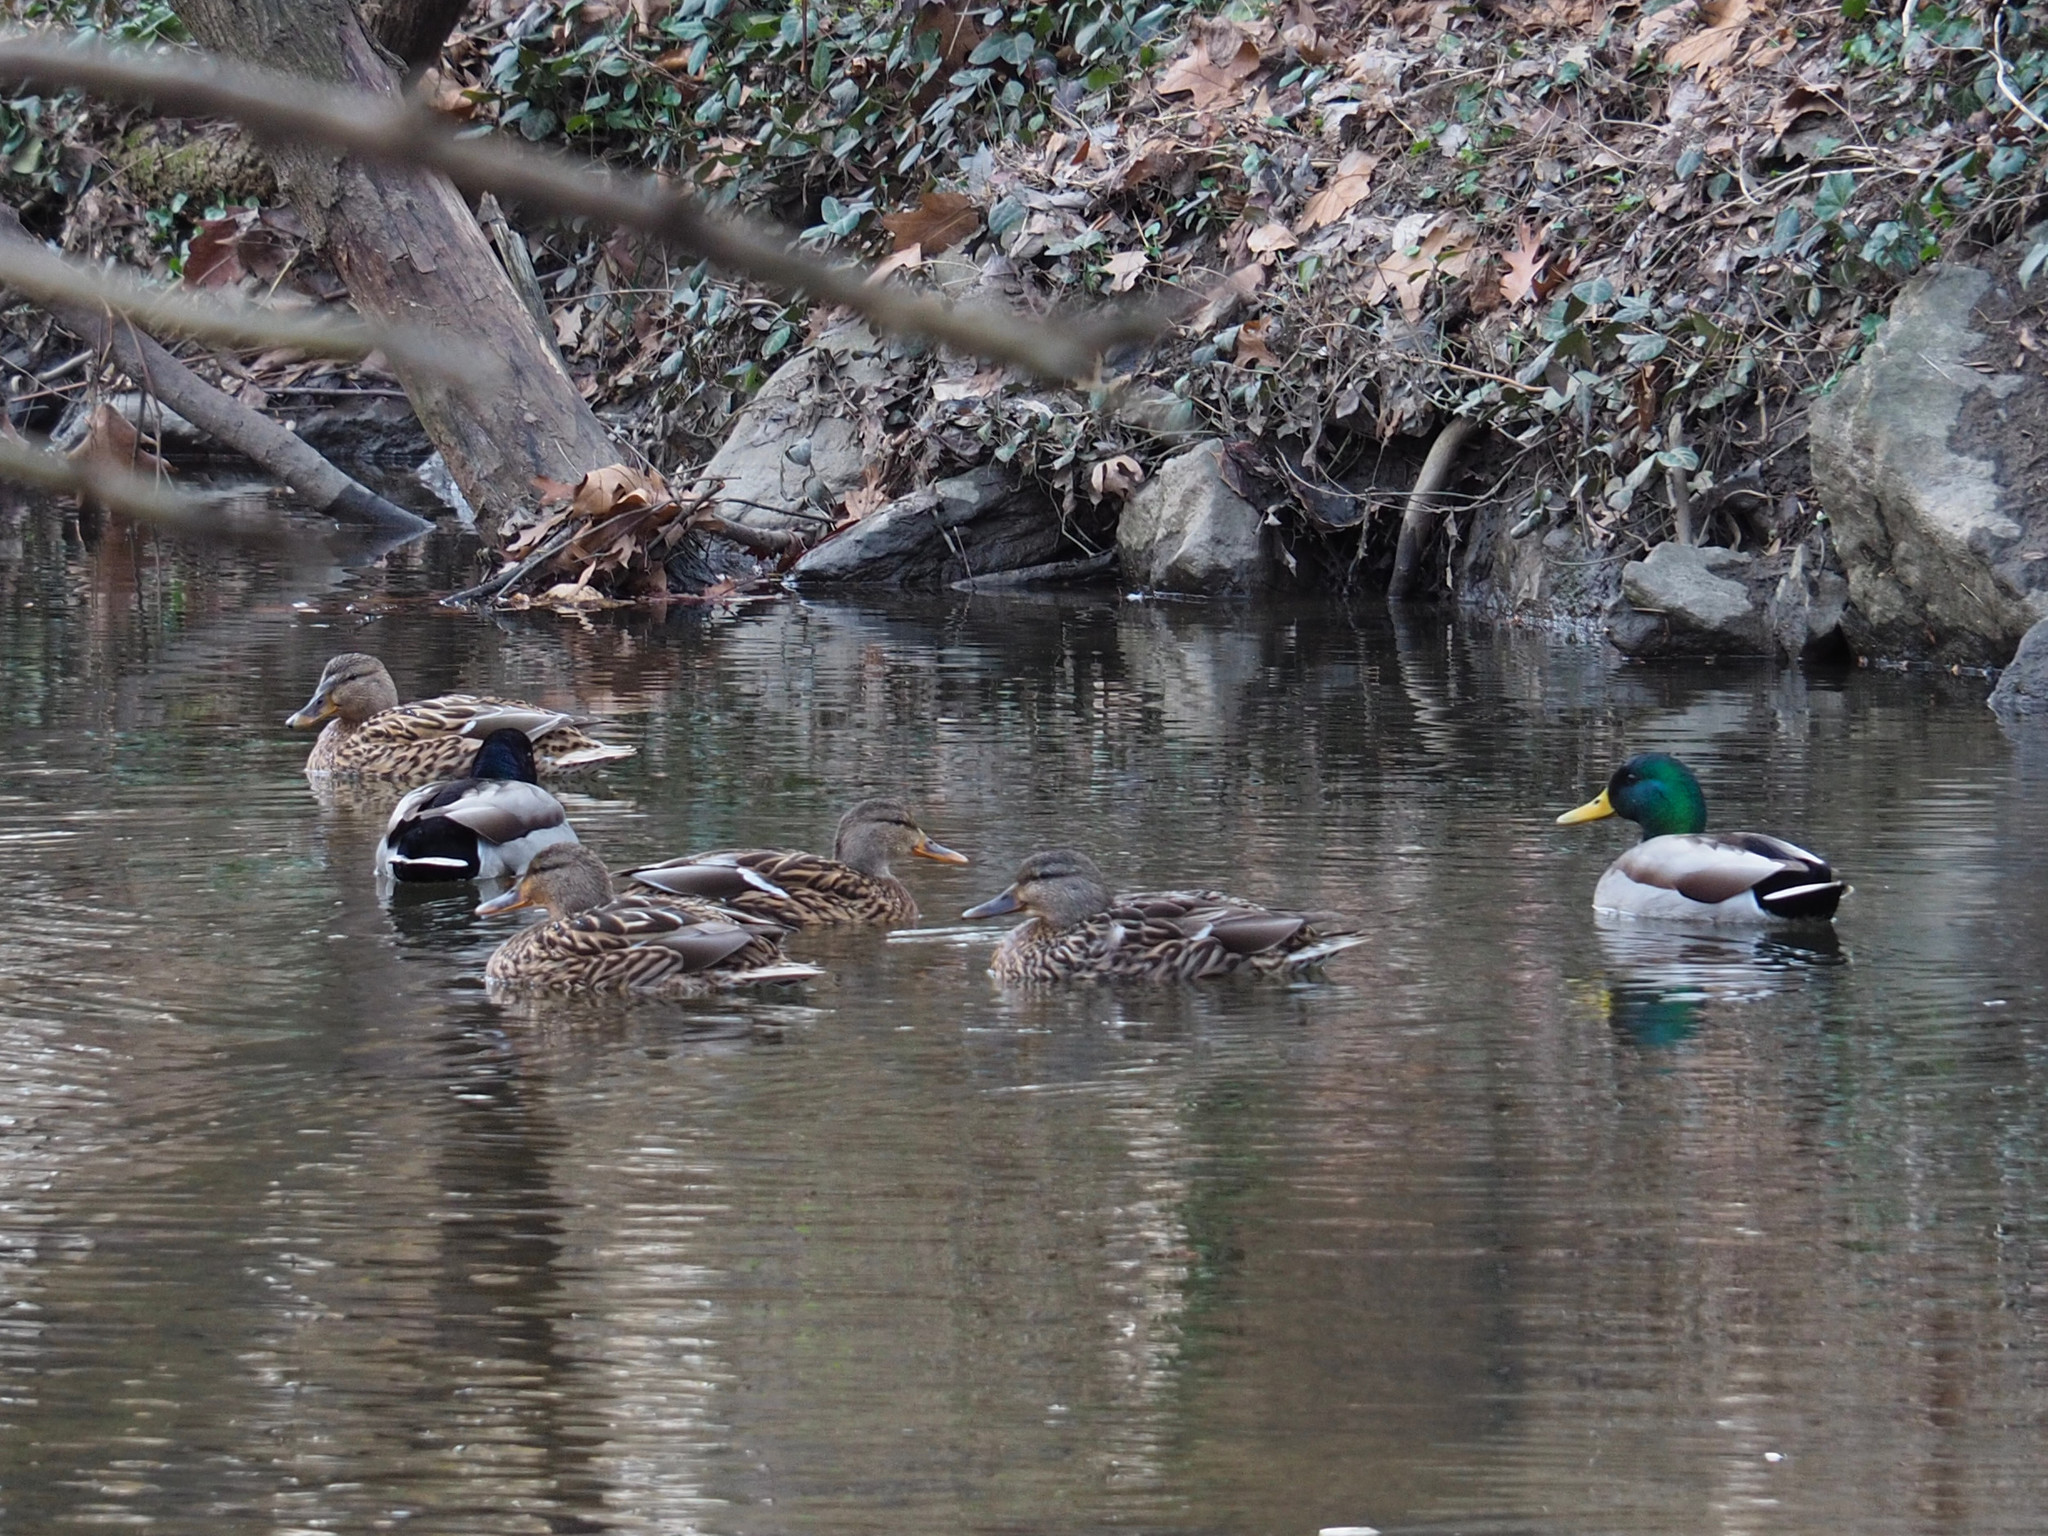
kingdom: Animalia
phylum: Chordata
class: Aves
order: Anseriformes
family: Anatidae
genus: Anas
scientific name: Anas platyrhynchos
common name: Mallard
